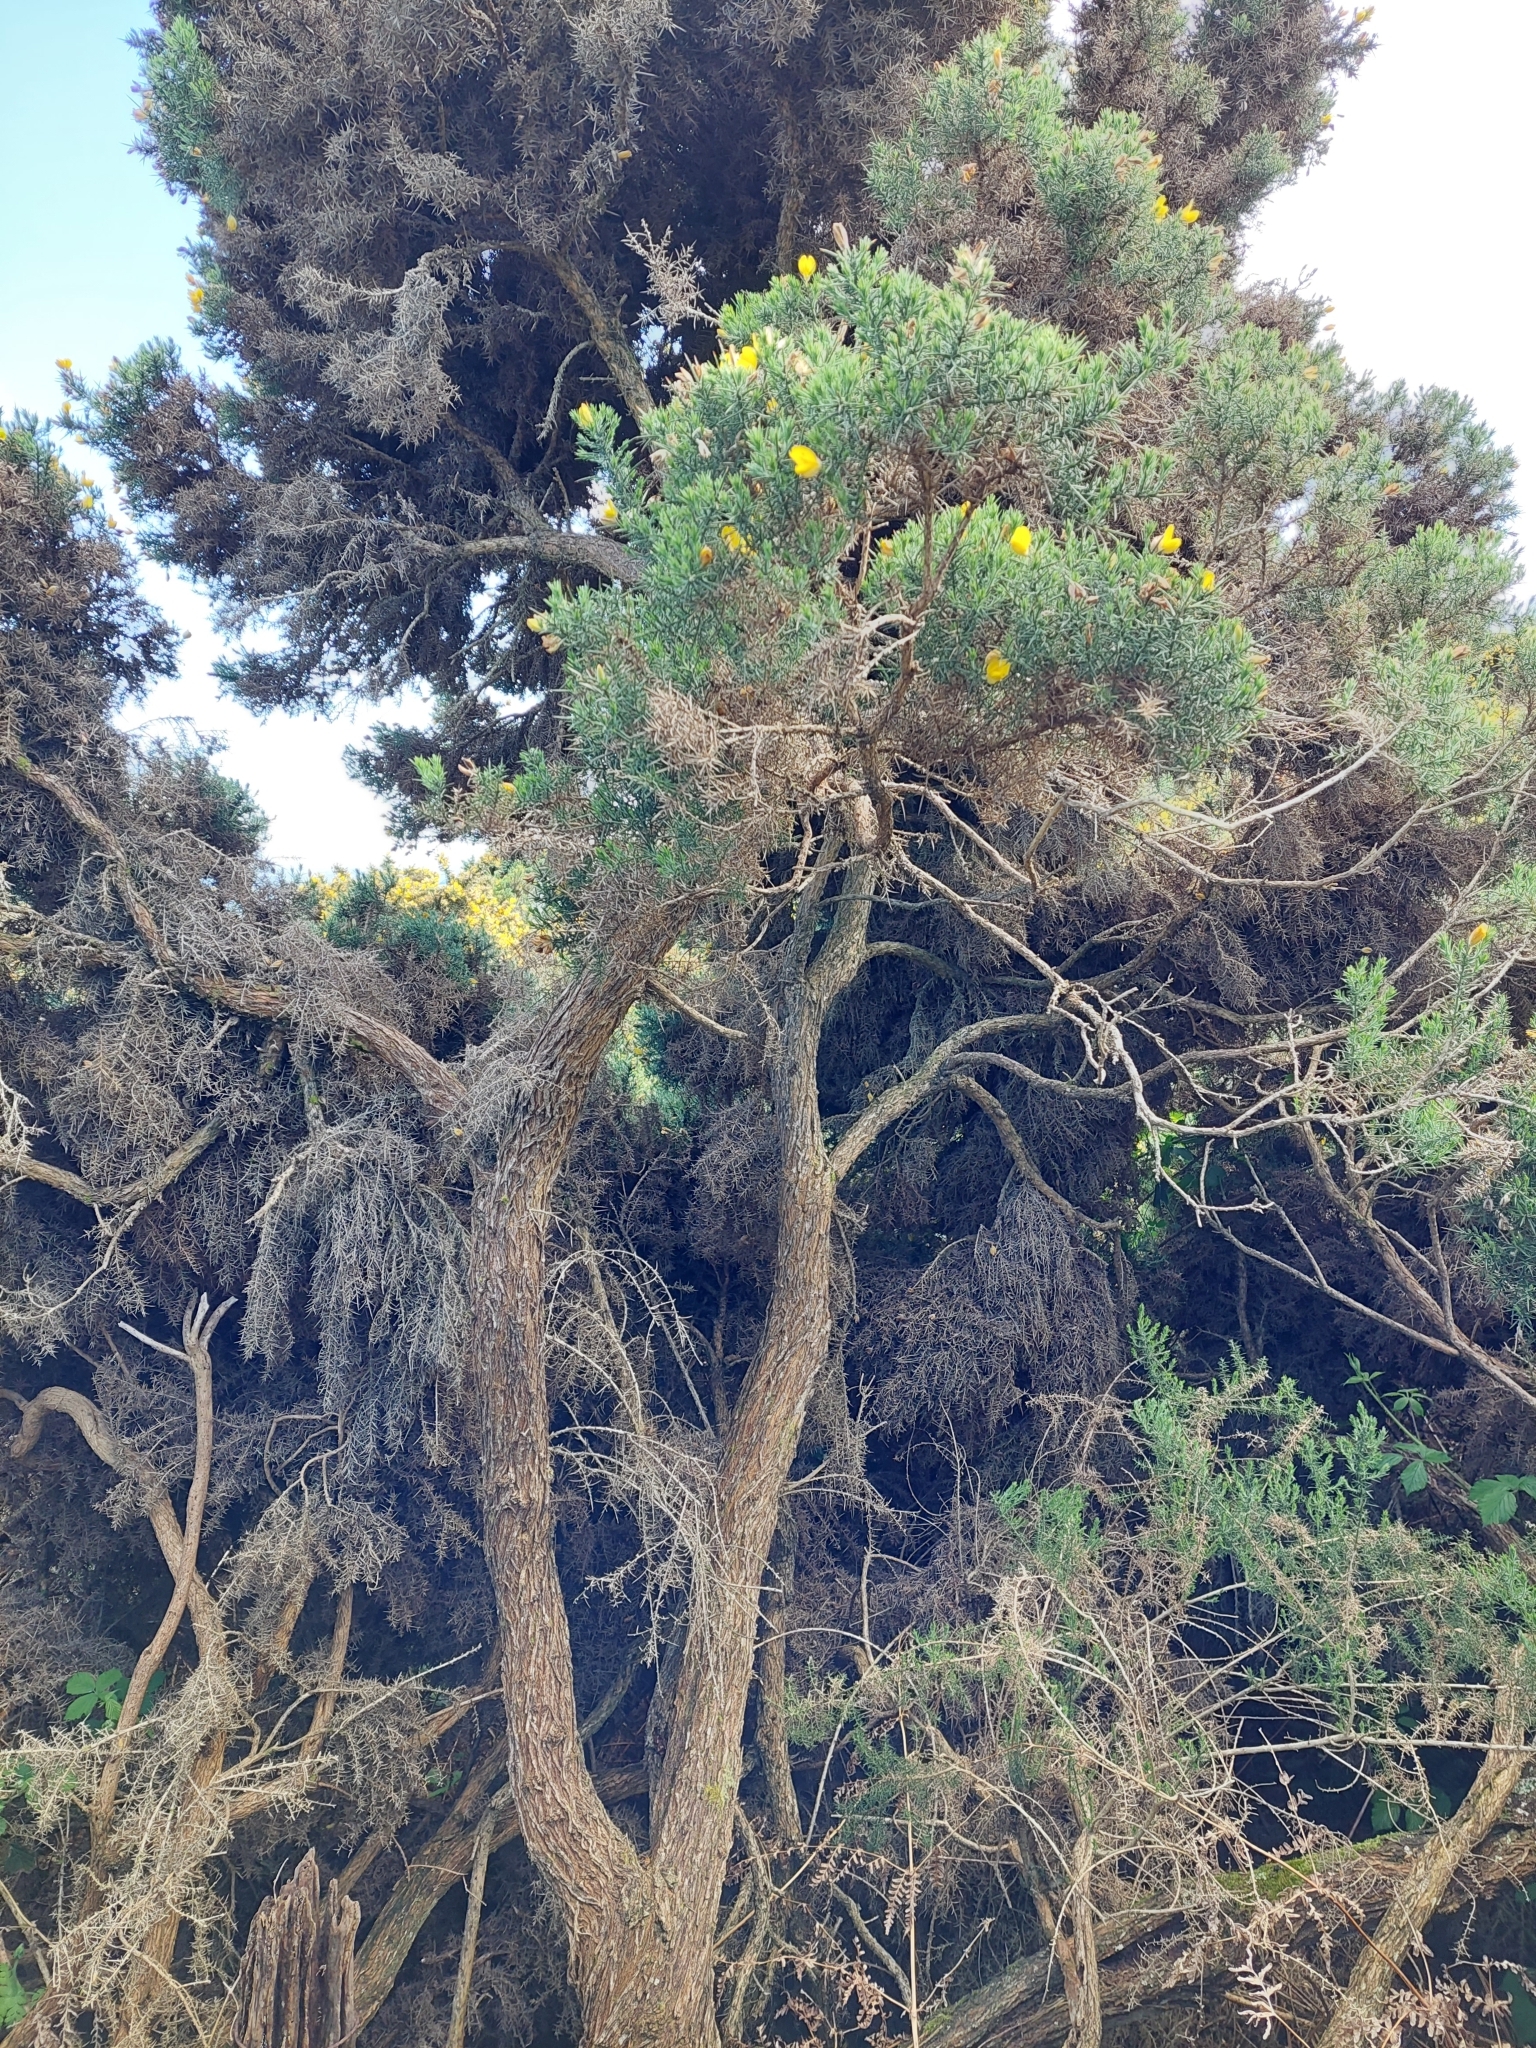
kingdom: Plantae
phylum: Tracheophyta
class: Magnoliopsida
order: Fabales
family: Fabaceae
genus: Ulex
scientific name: Ulex europaeus
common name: Common gorse
